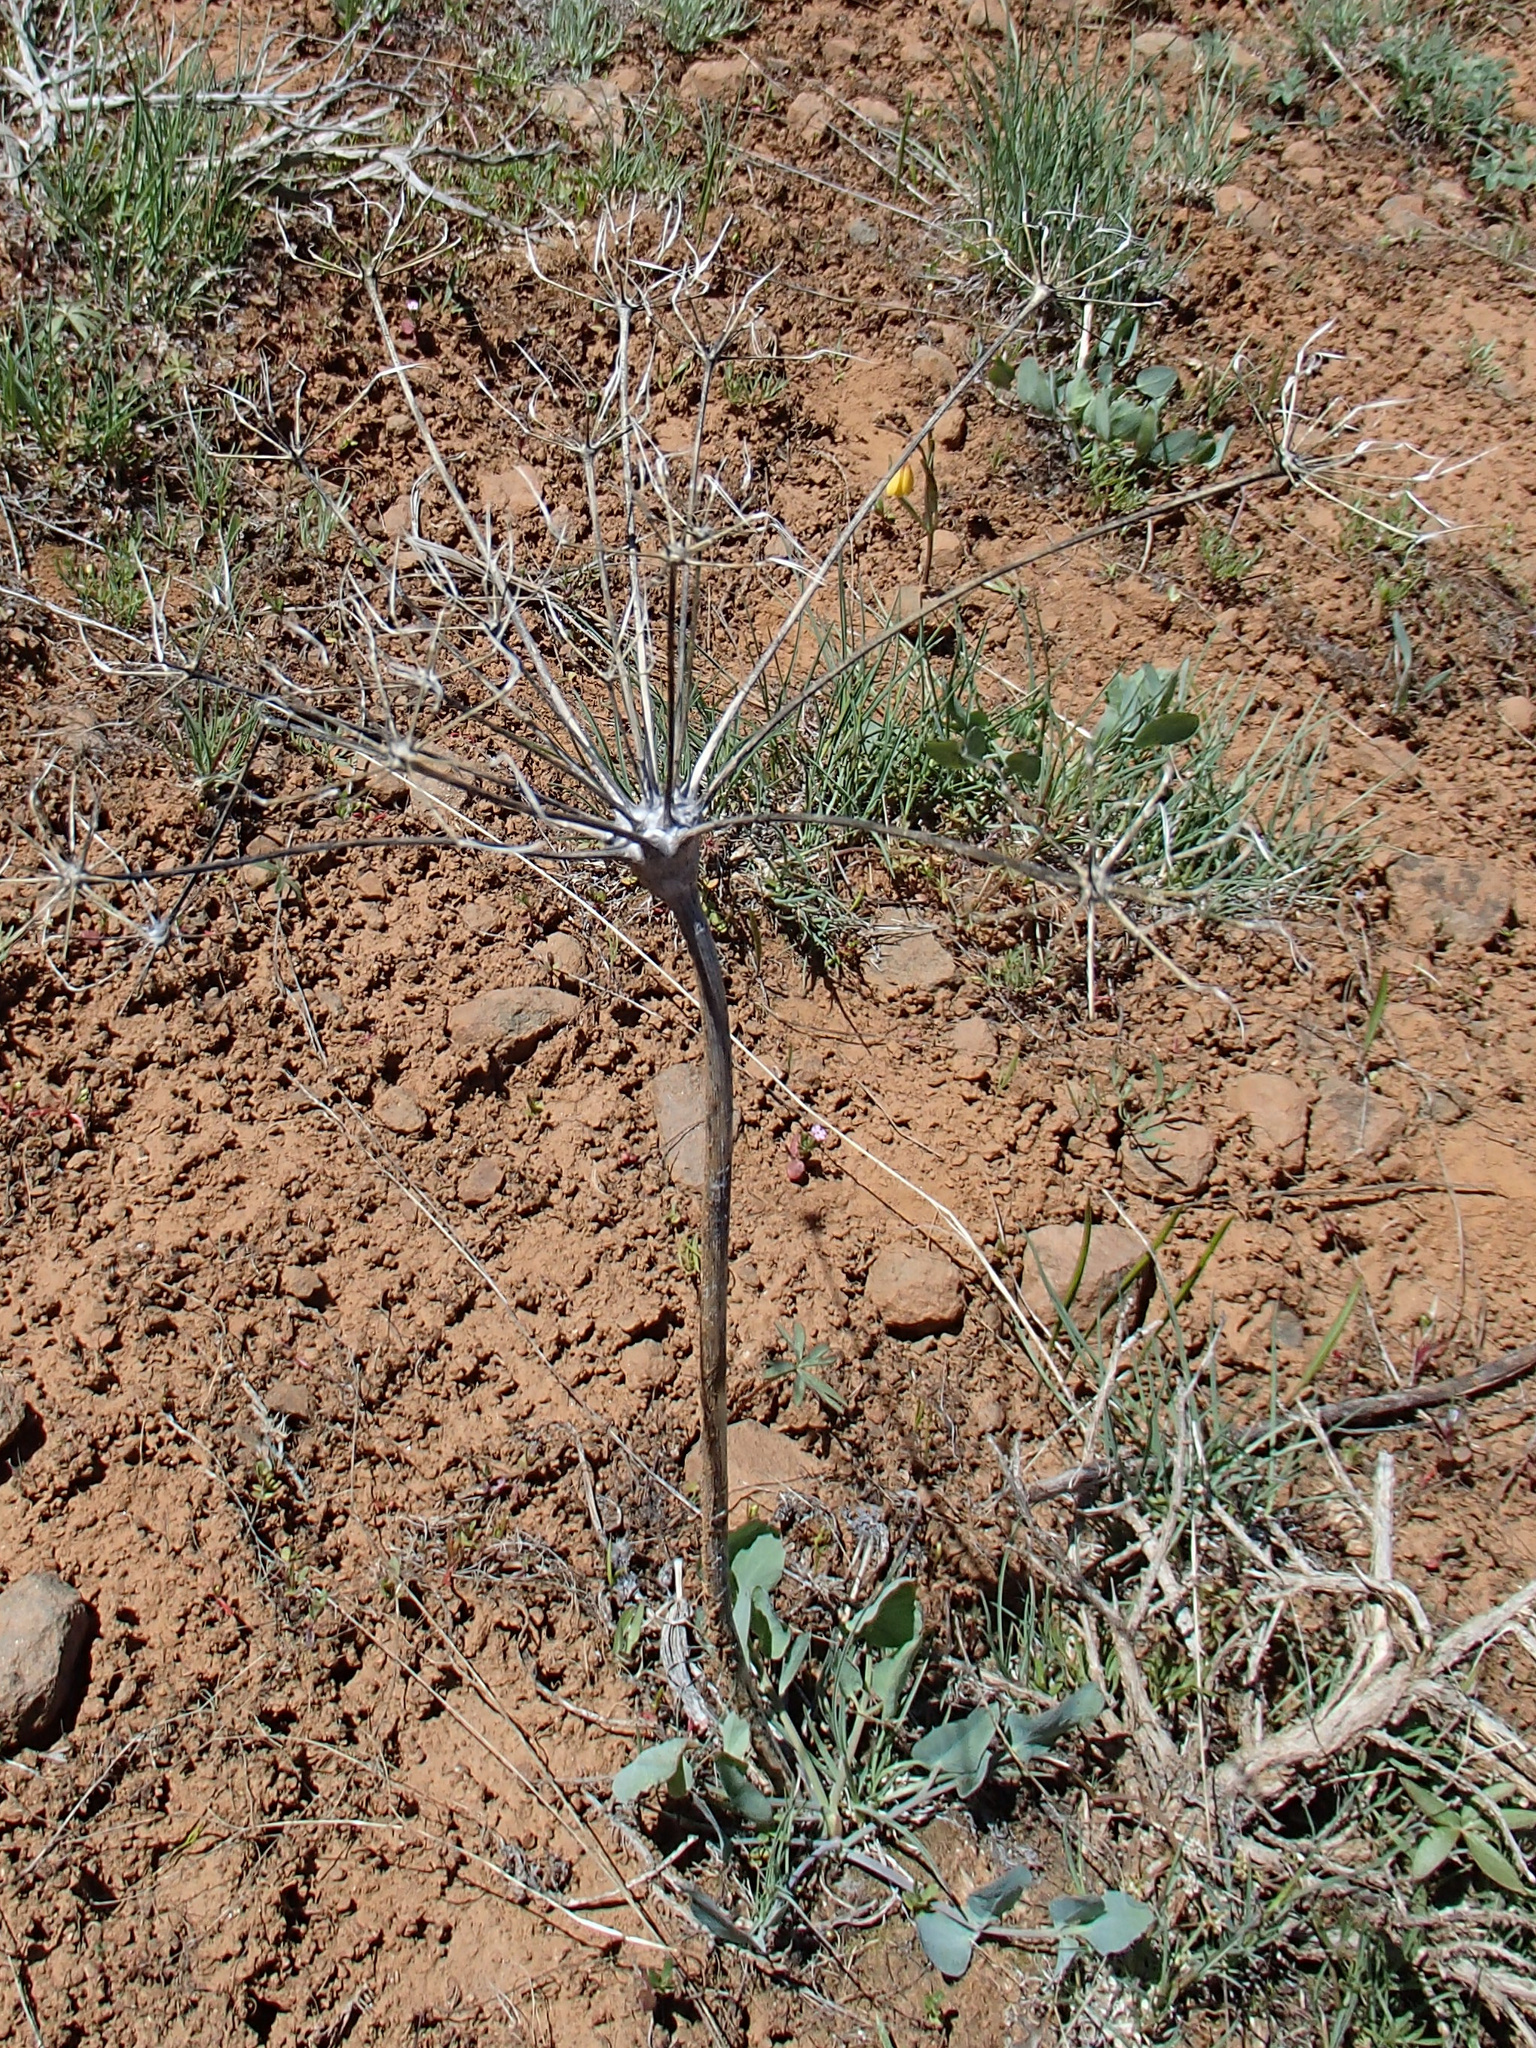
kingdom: Plantae
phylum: Tracheophyta
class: Magnoliopsida
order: Apiales
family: Apiaceae
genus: Lomatium
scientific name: Lomatium nudicaule
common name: Pestle lomatium
